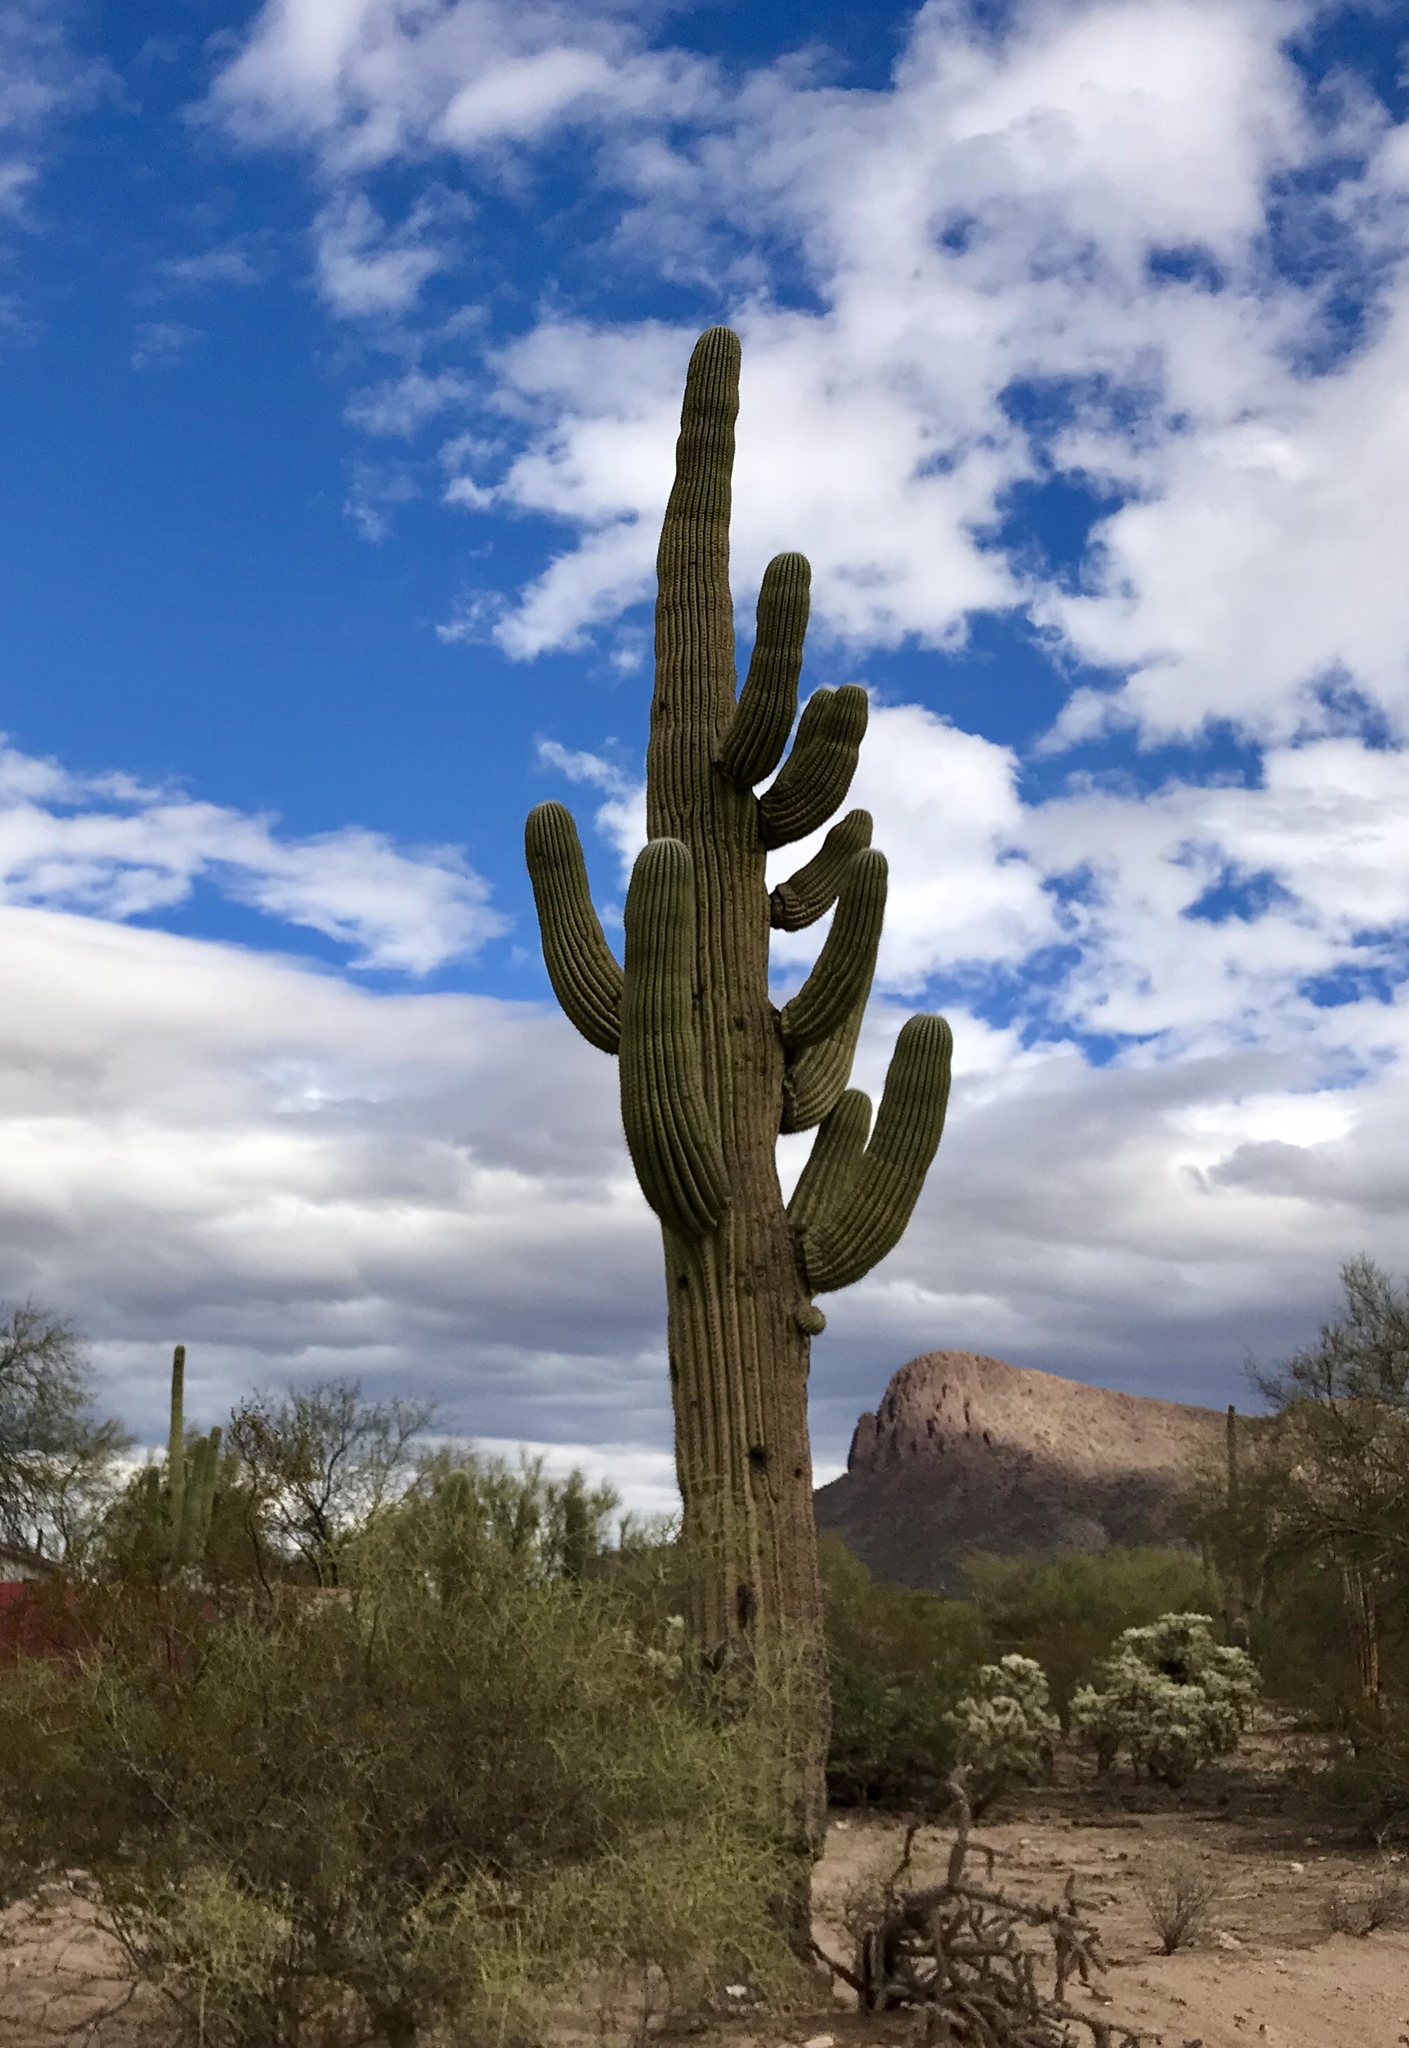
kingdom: Plantae
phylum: Tracheophyta
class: Magnoliopsida
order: Caryophyllales
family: Cactaceae
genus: Carnegiea
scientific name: Carnegiea gigantea
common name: Saguaro
